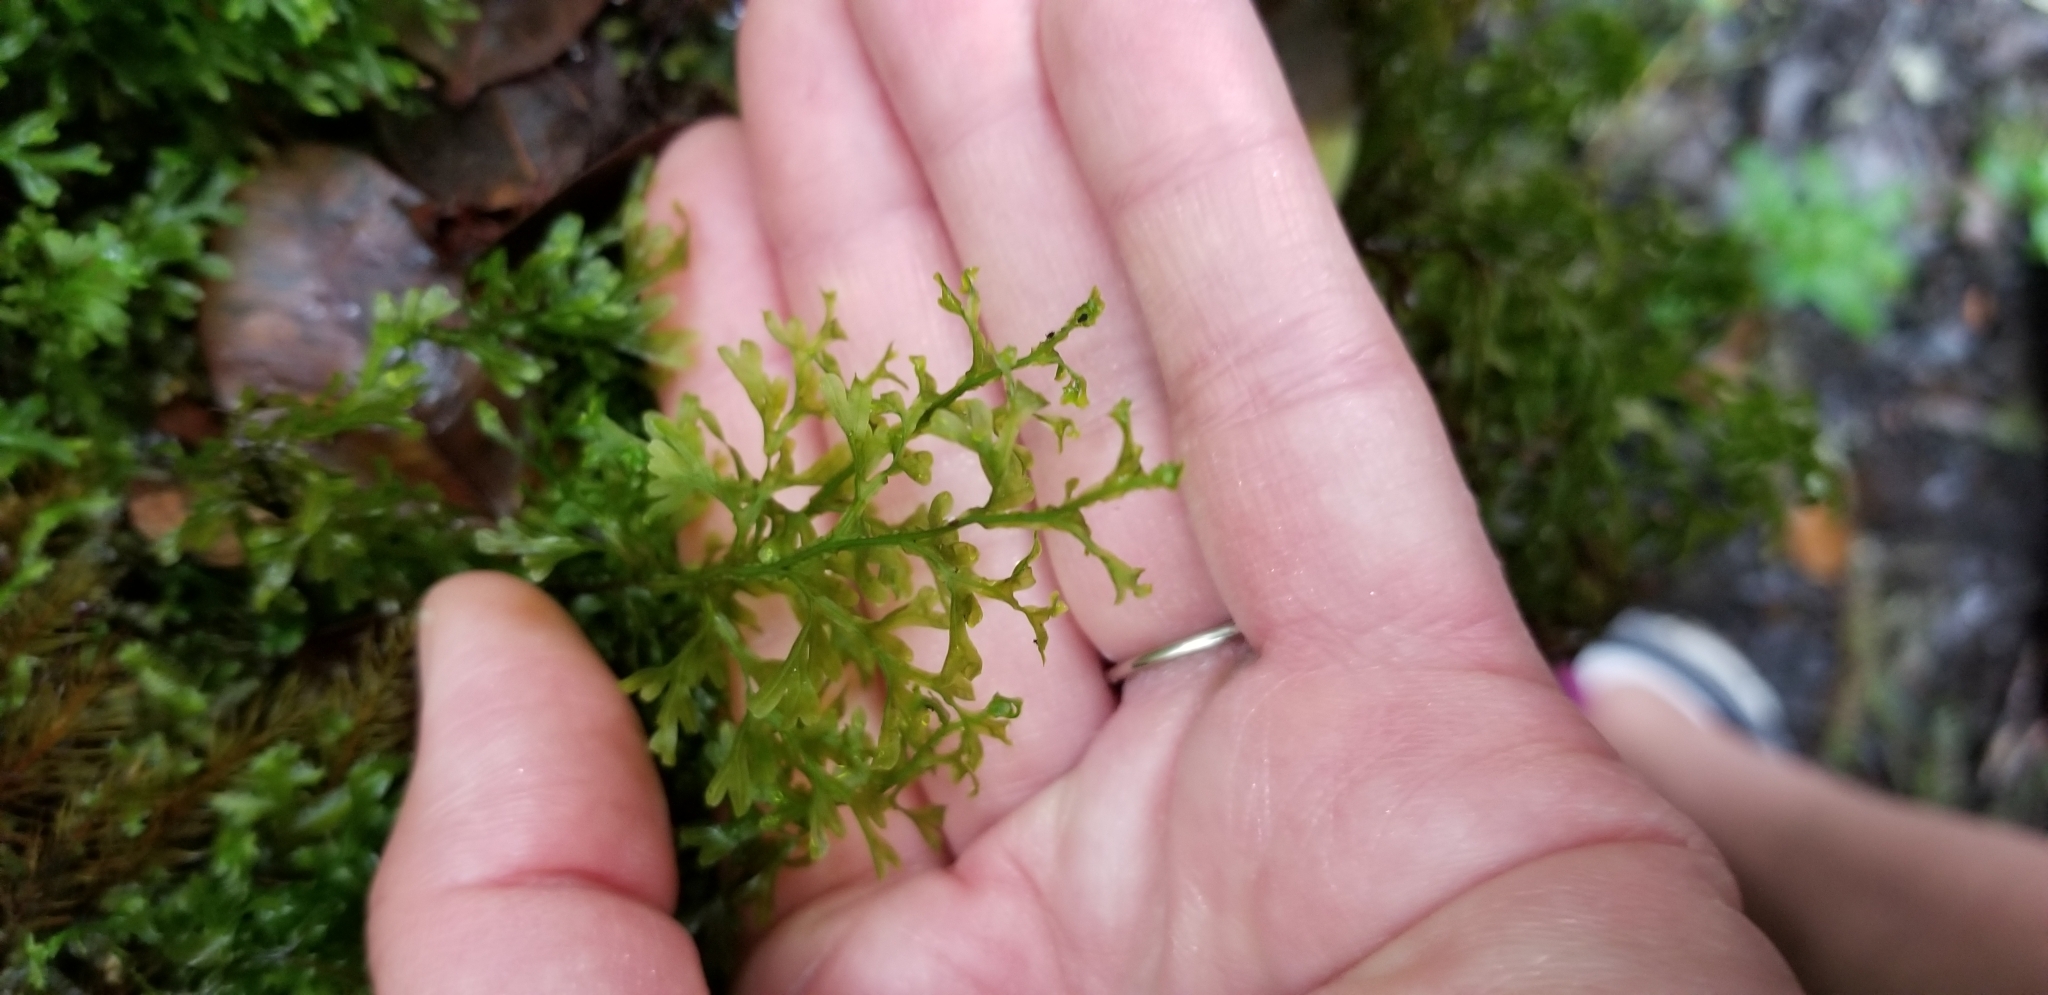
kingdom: Plantae
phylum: Tracheophyta
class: Polypodiopsida
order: Hymenophyllales
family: Hymenophyllaceae
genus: Hymenophyllum
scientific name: Hymenophyllum recurvum
